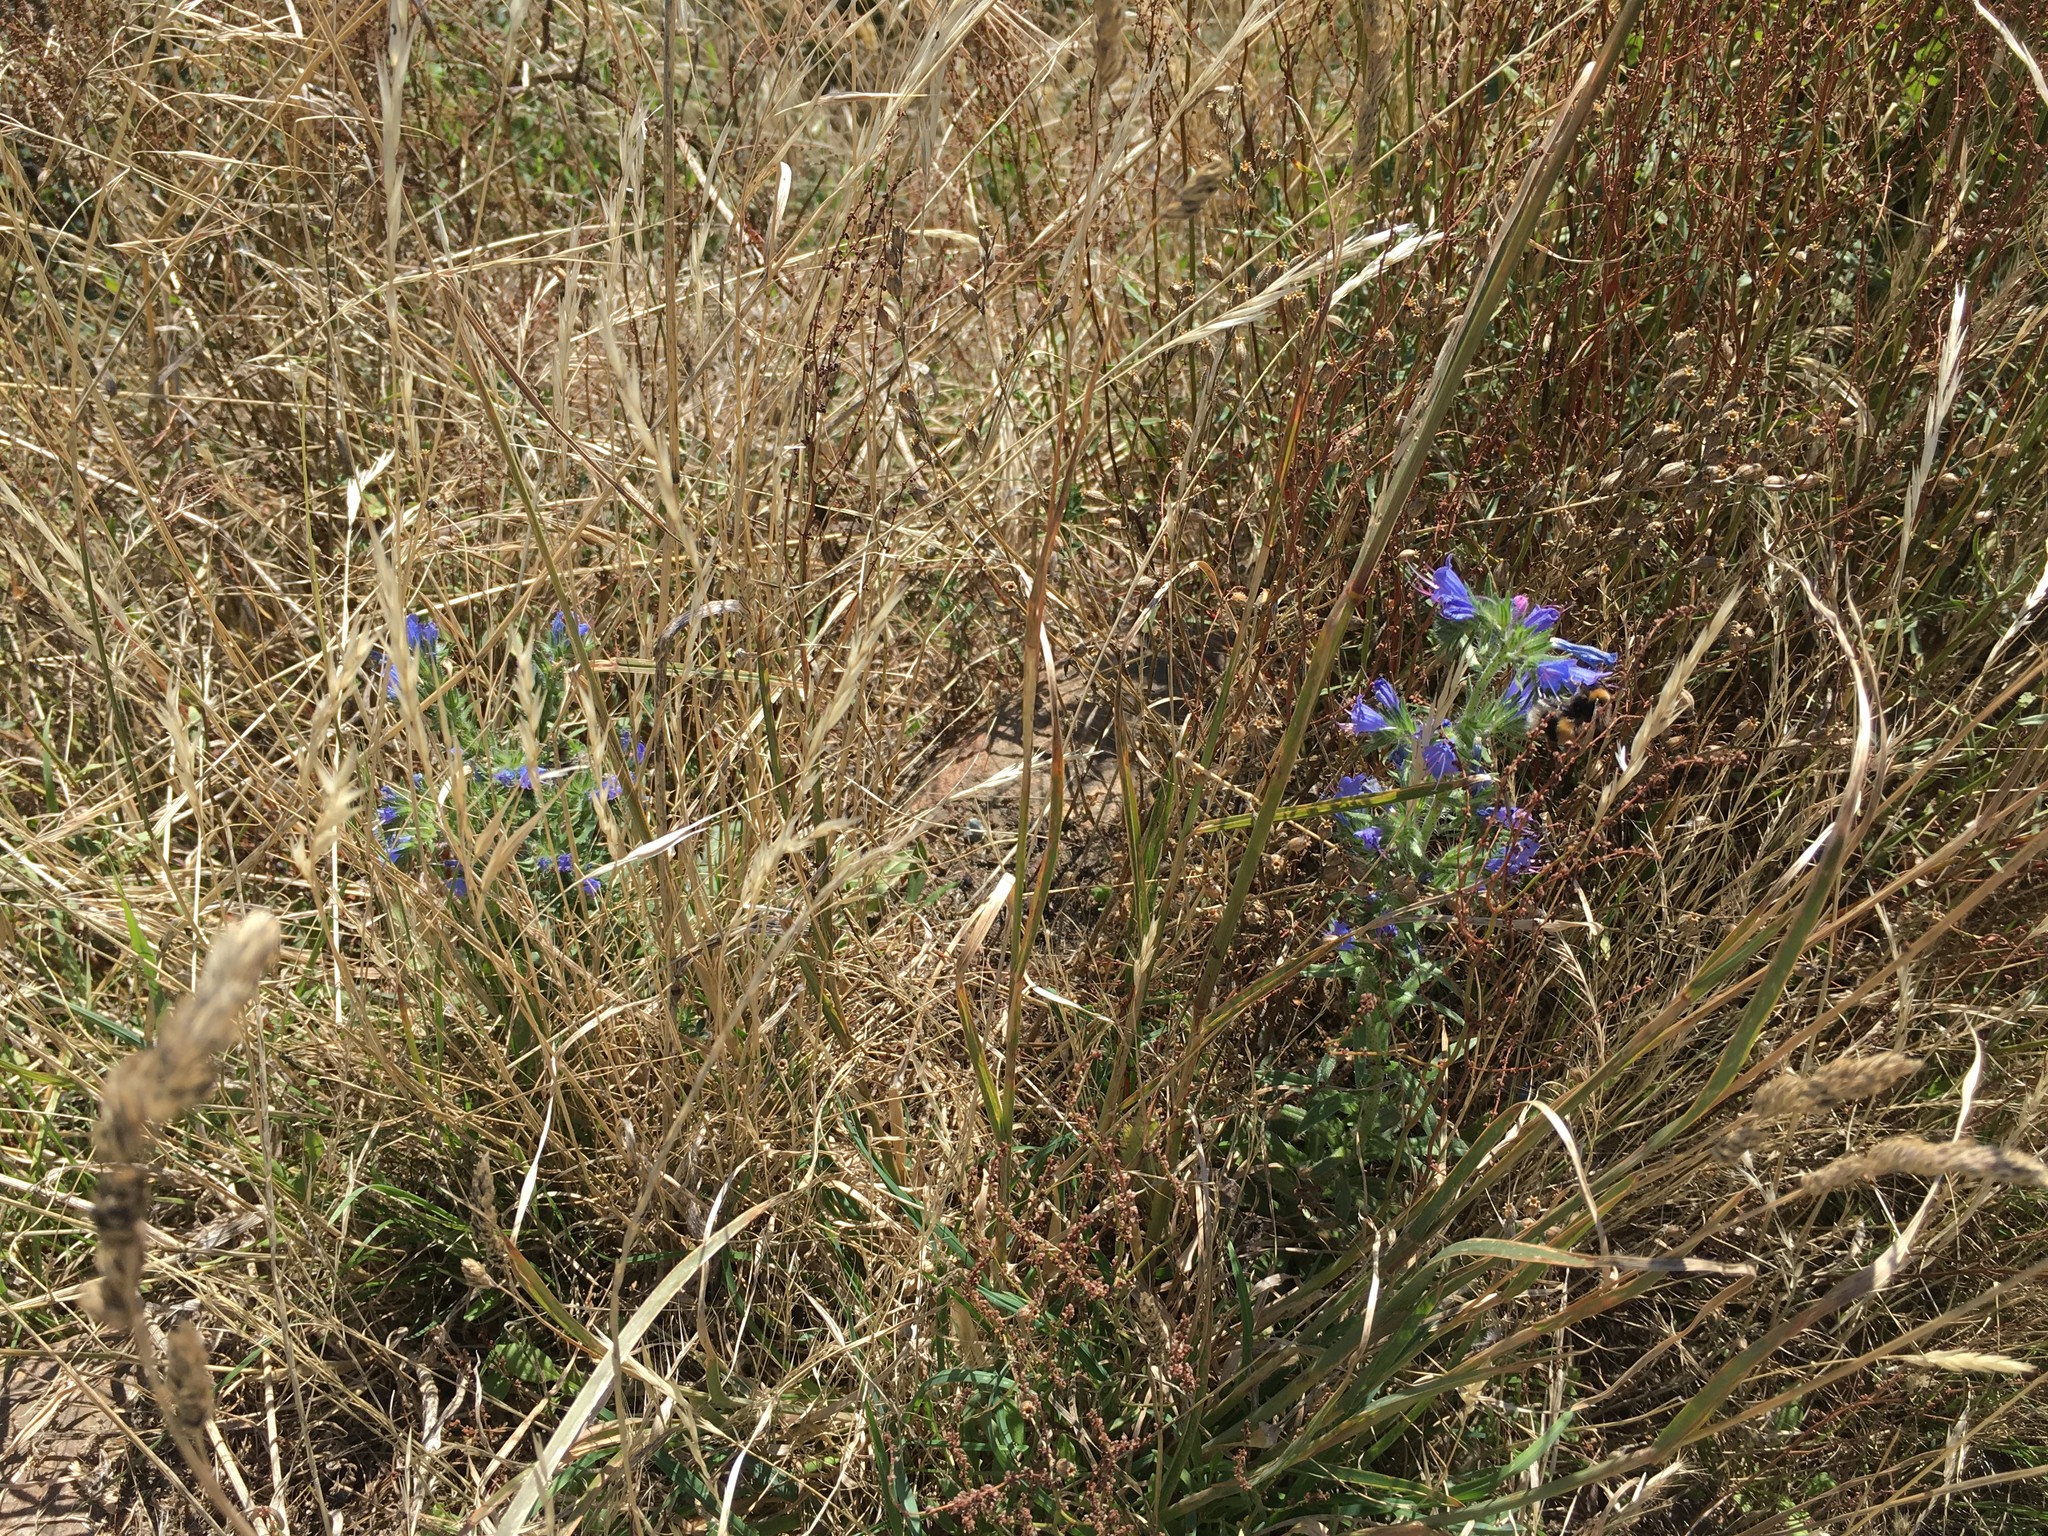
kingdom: Plantae
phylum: Tracheophyta
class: Magnoliopsida
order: Boraginales
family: Boraginaceae
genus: Echium
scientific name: Echium vulgare
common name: Common viper's bugloss
